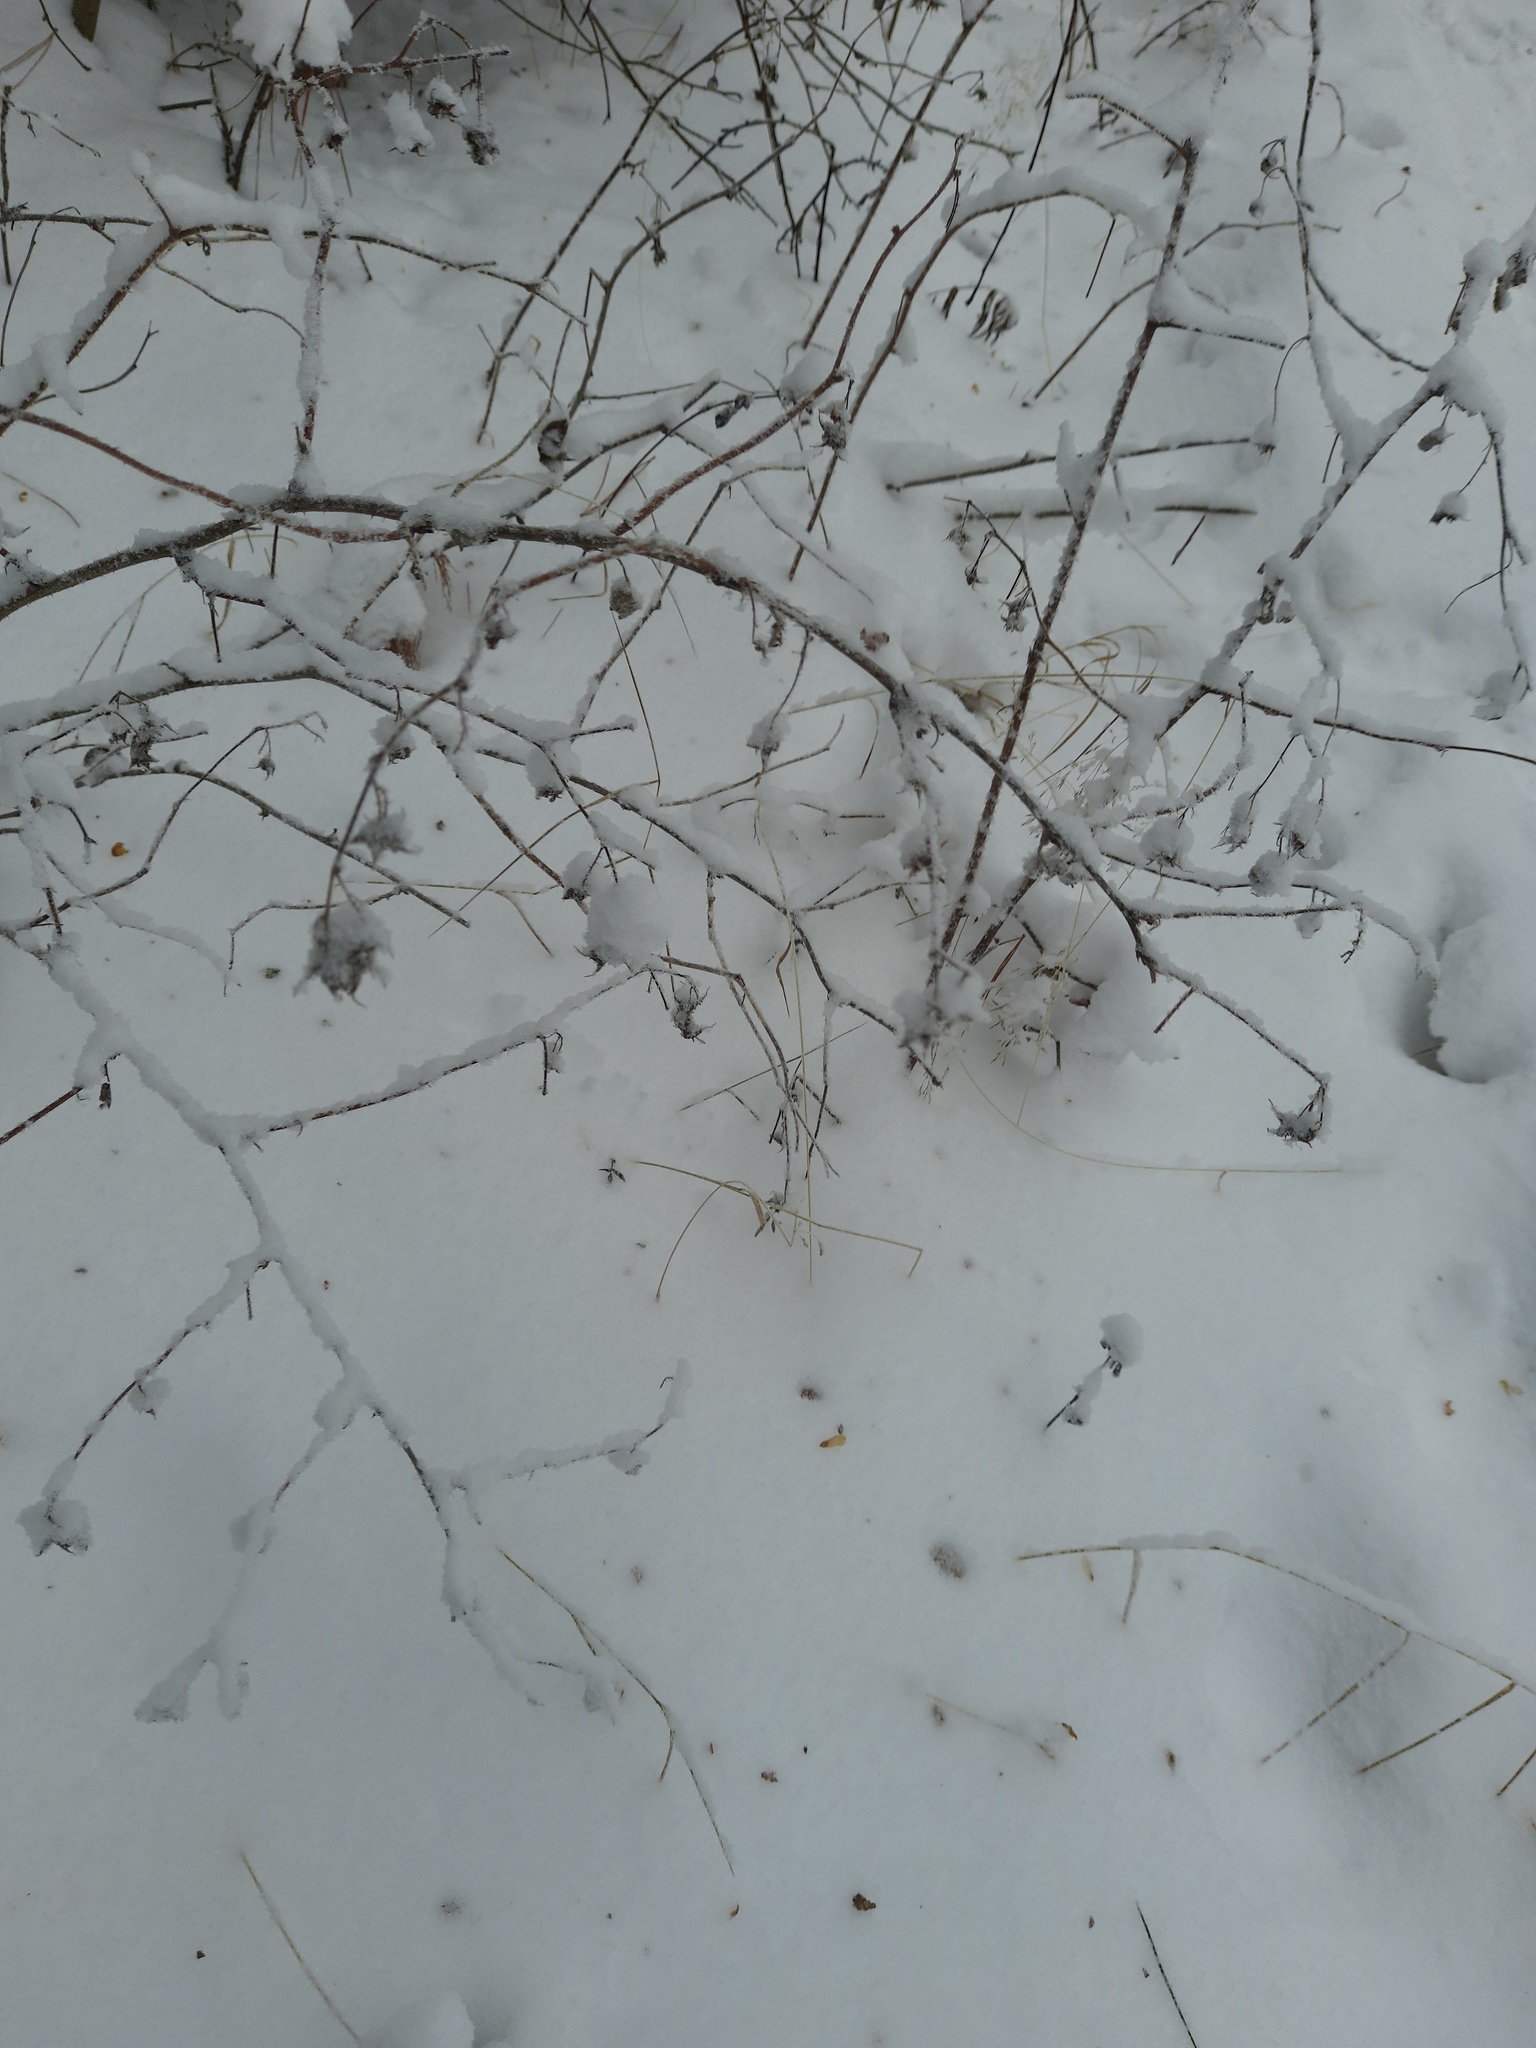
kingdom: Plantae
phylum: Tracheophyta
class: Magnoliopsida
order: Rosales
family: Rosaceae
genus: Rubus
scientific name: Rubus sachalinensis
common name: Red raspberry
